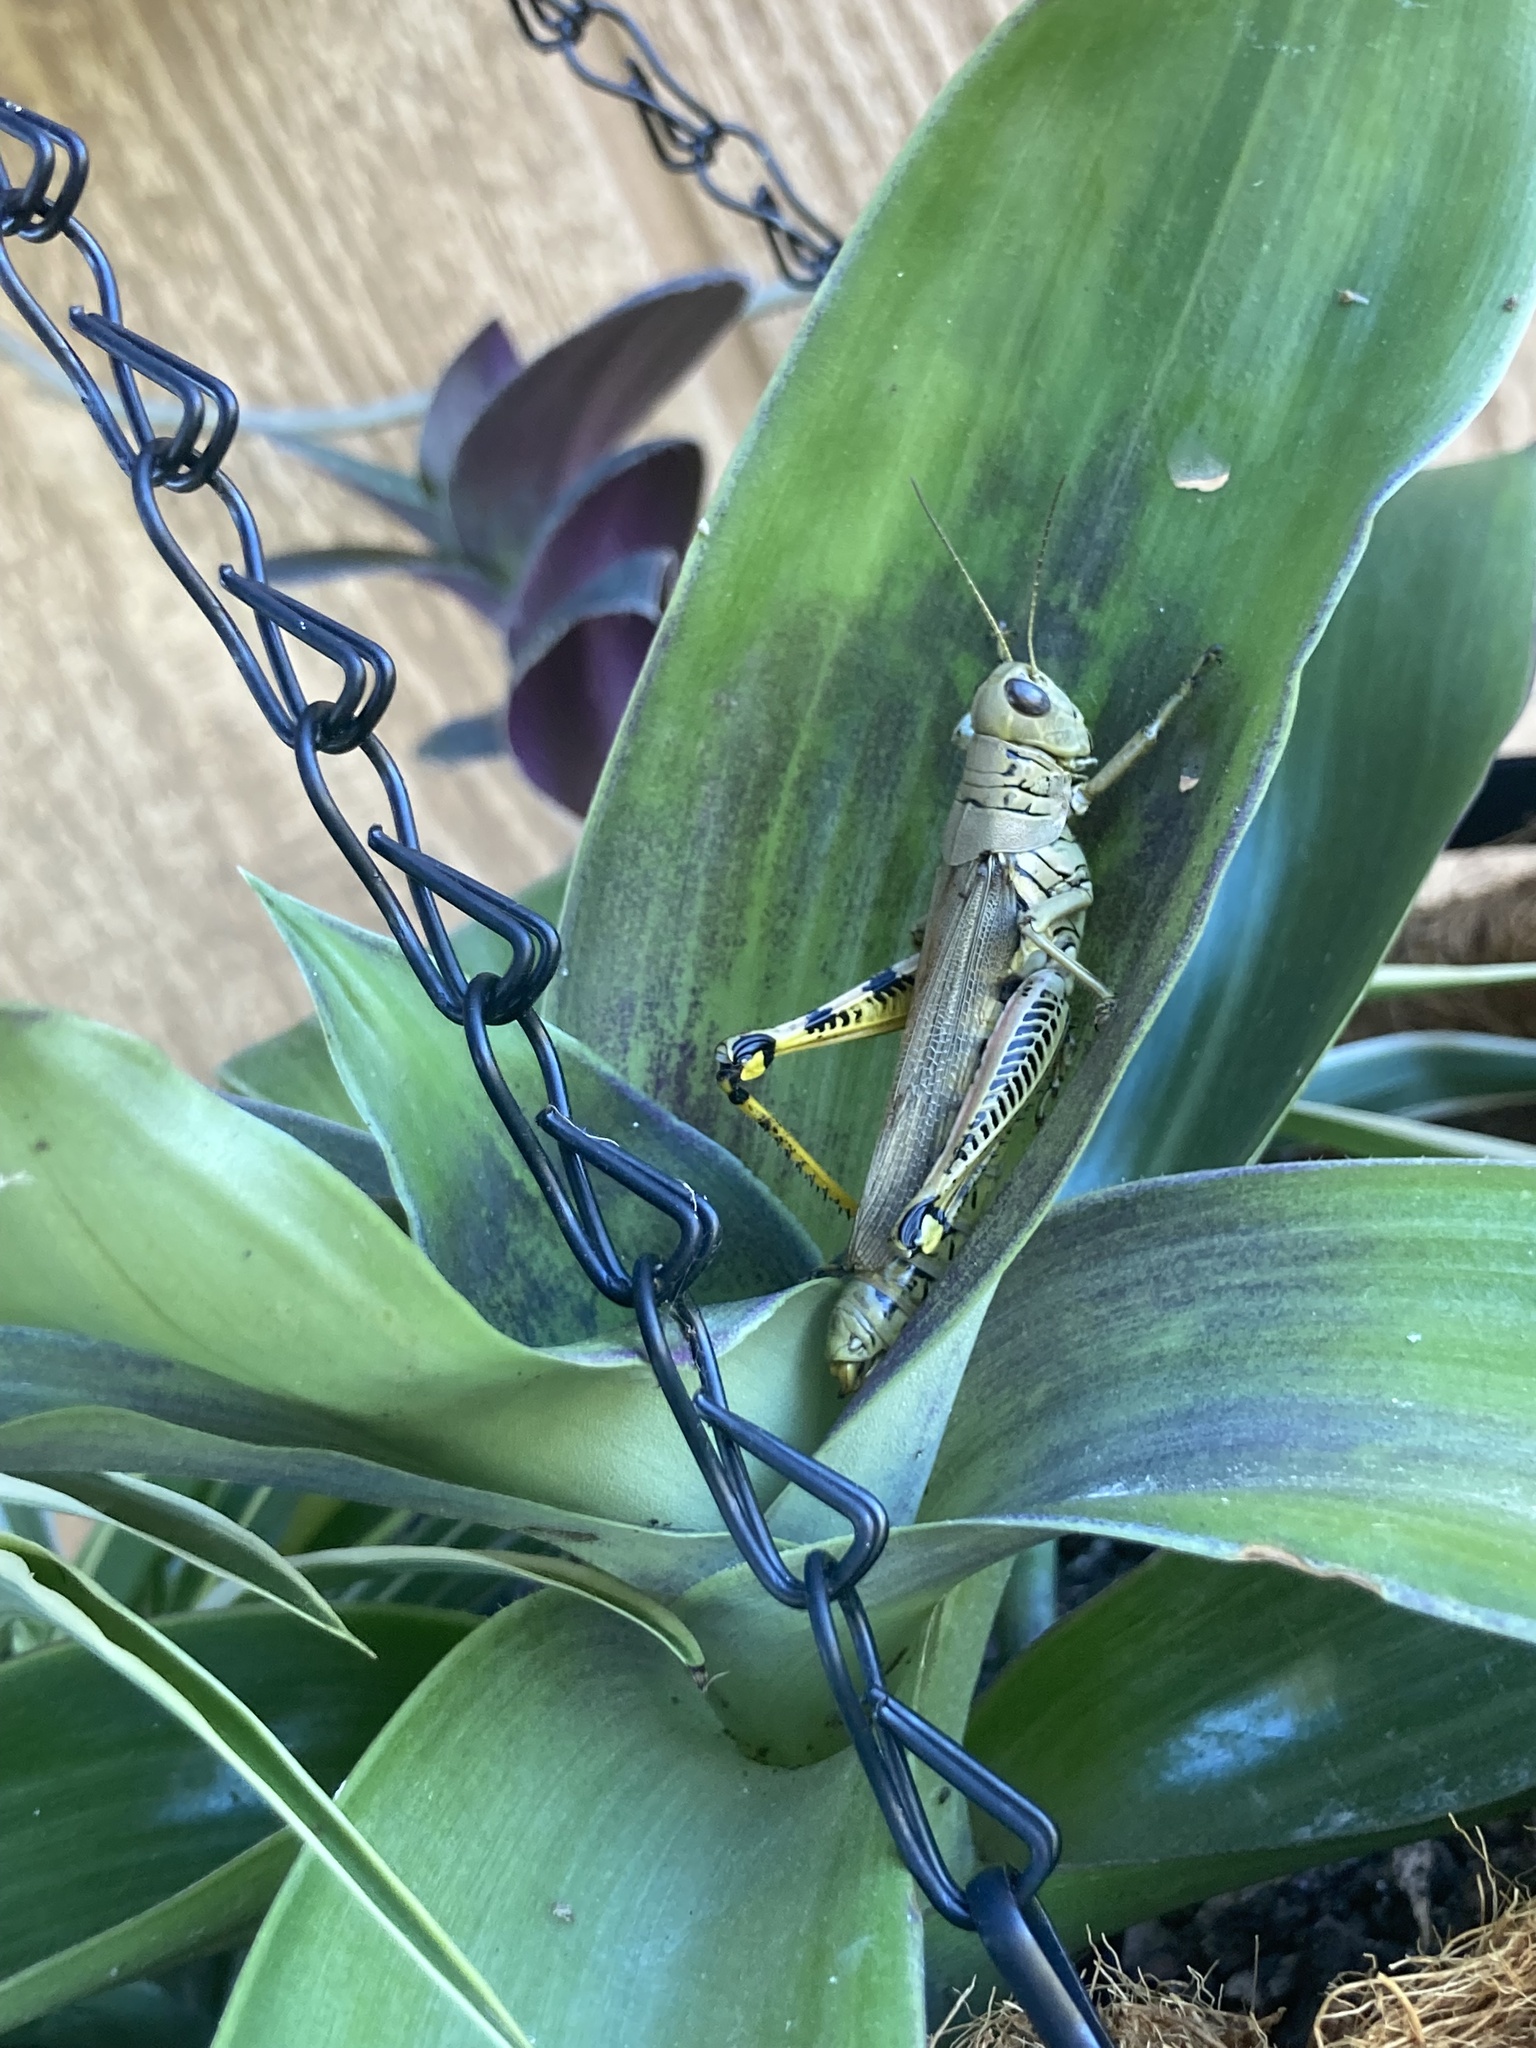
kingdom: Animalia
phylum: Arthropoda
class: Insecta
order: Orthoptera
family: Acrididae
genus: Melanoplus
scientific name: Melanoplus differentialis
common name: Differential grasshopper
